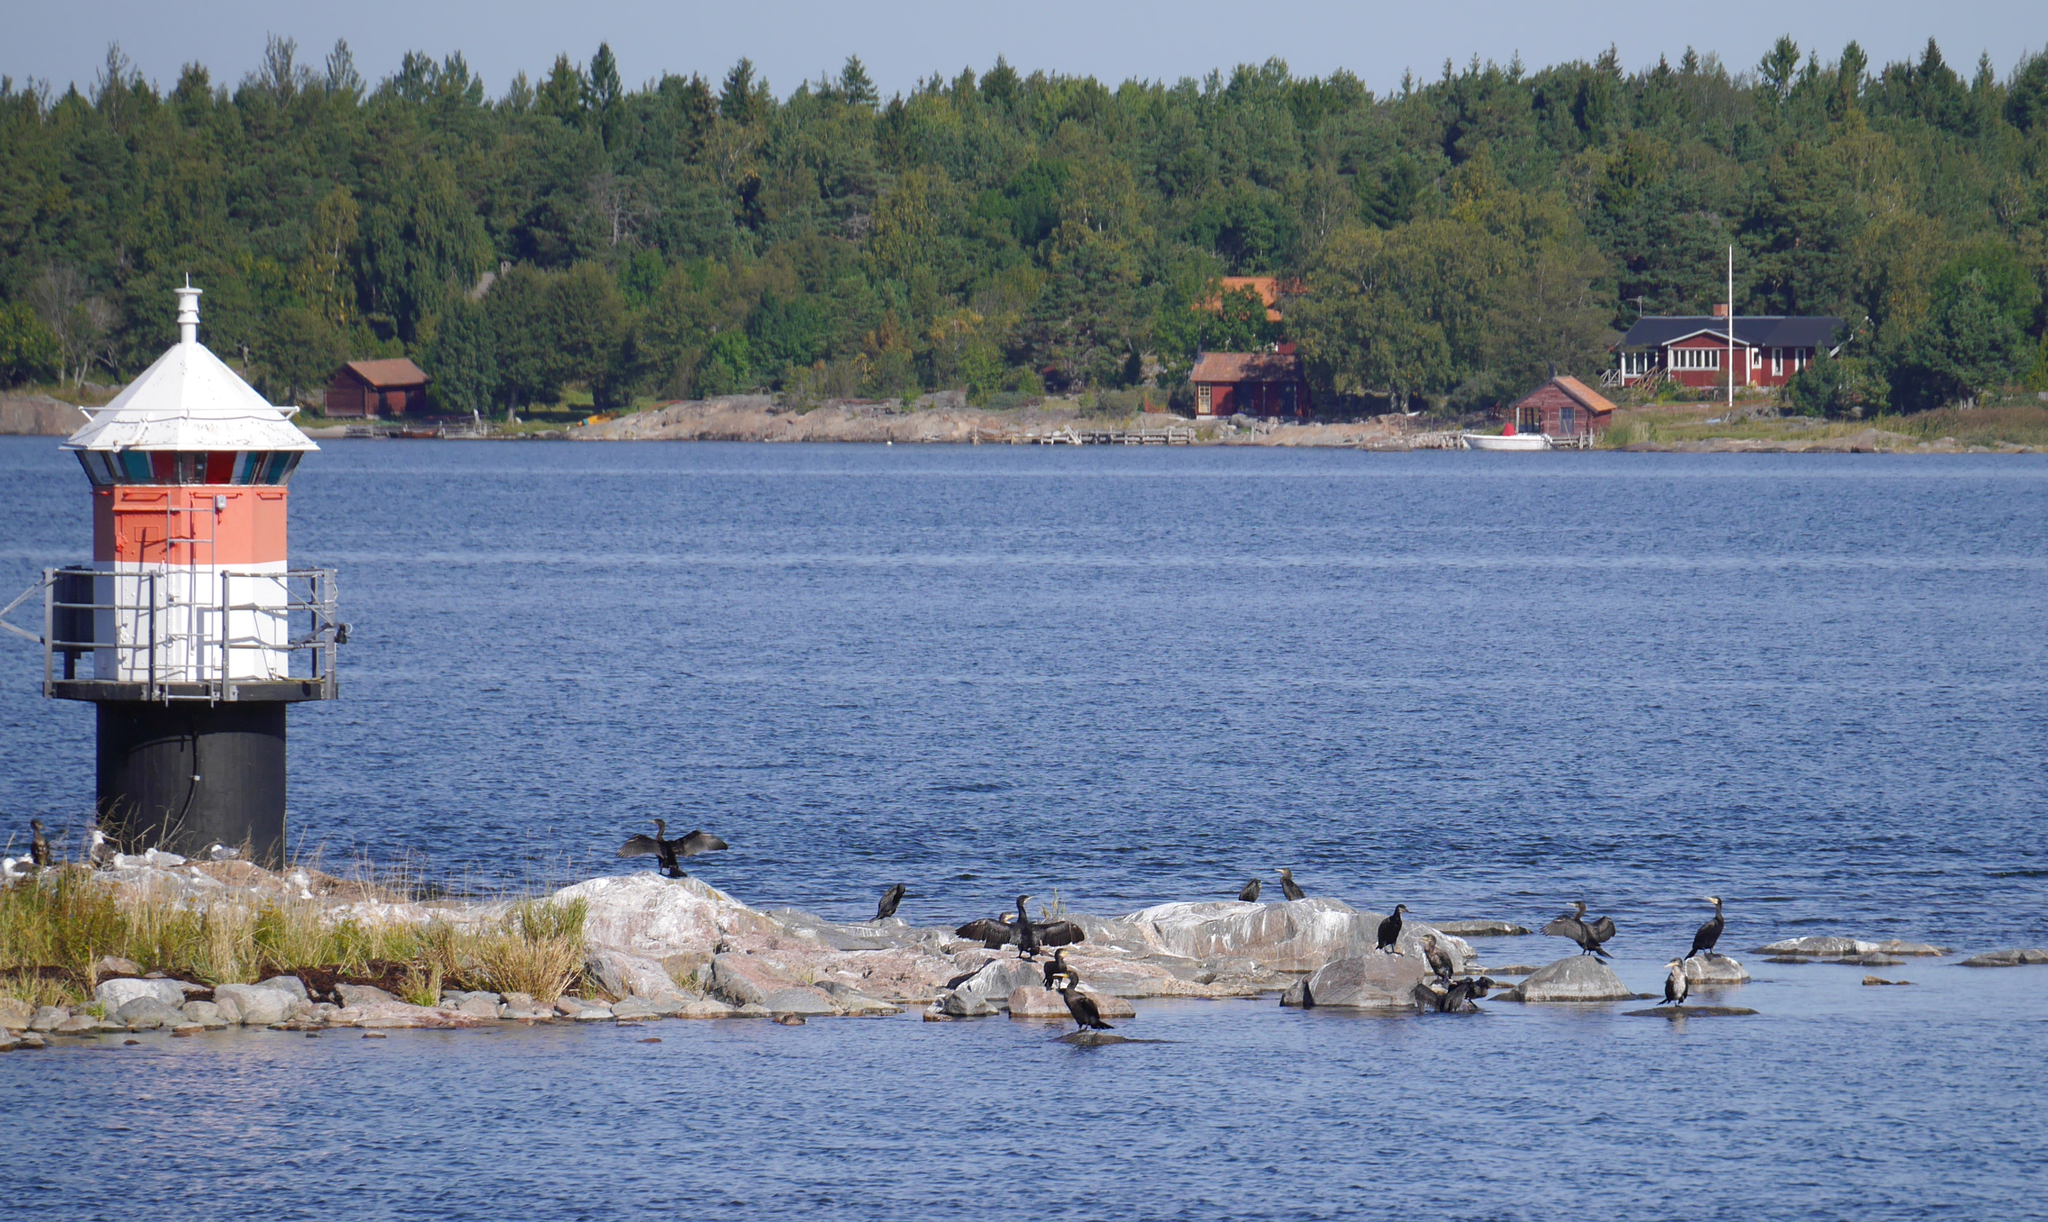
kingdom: Animalia
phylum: Chordata
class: Aves
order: Suliformes
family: Phalacrocoracidae
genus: Phalacrocorax
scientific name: Phalacrocorax carbo
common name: Great cormorant
